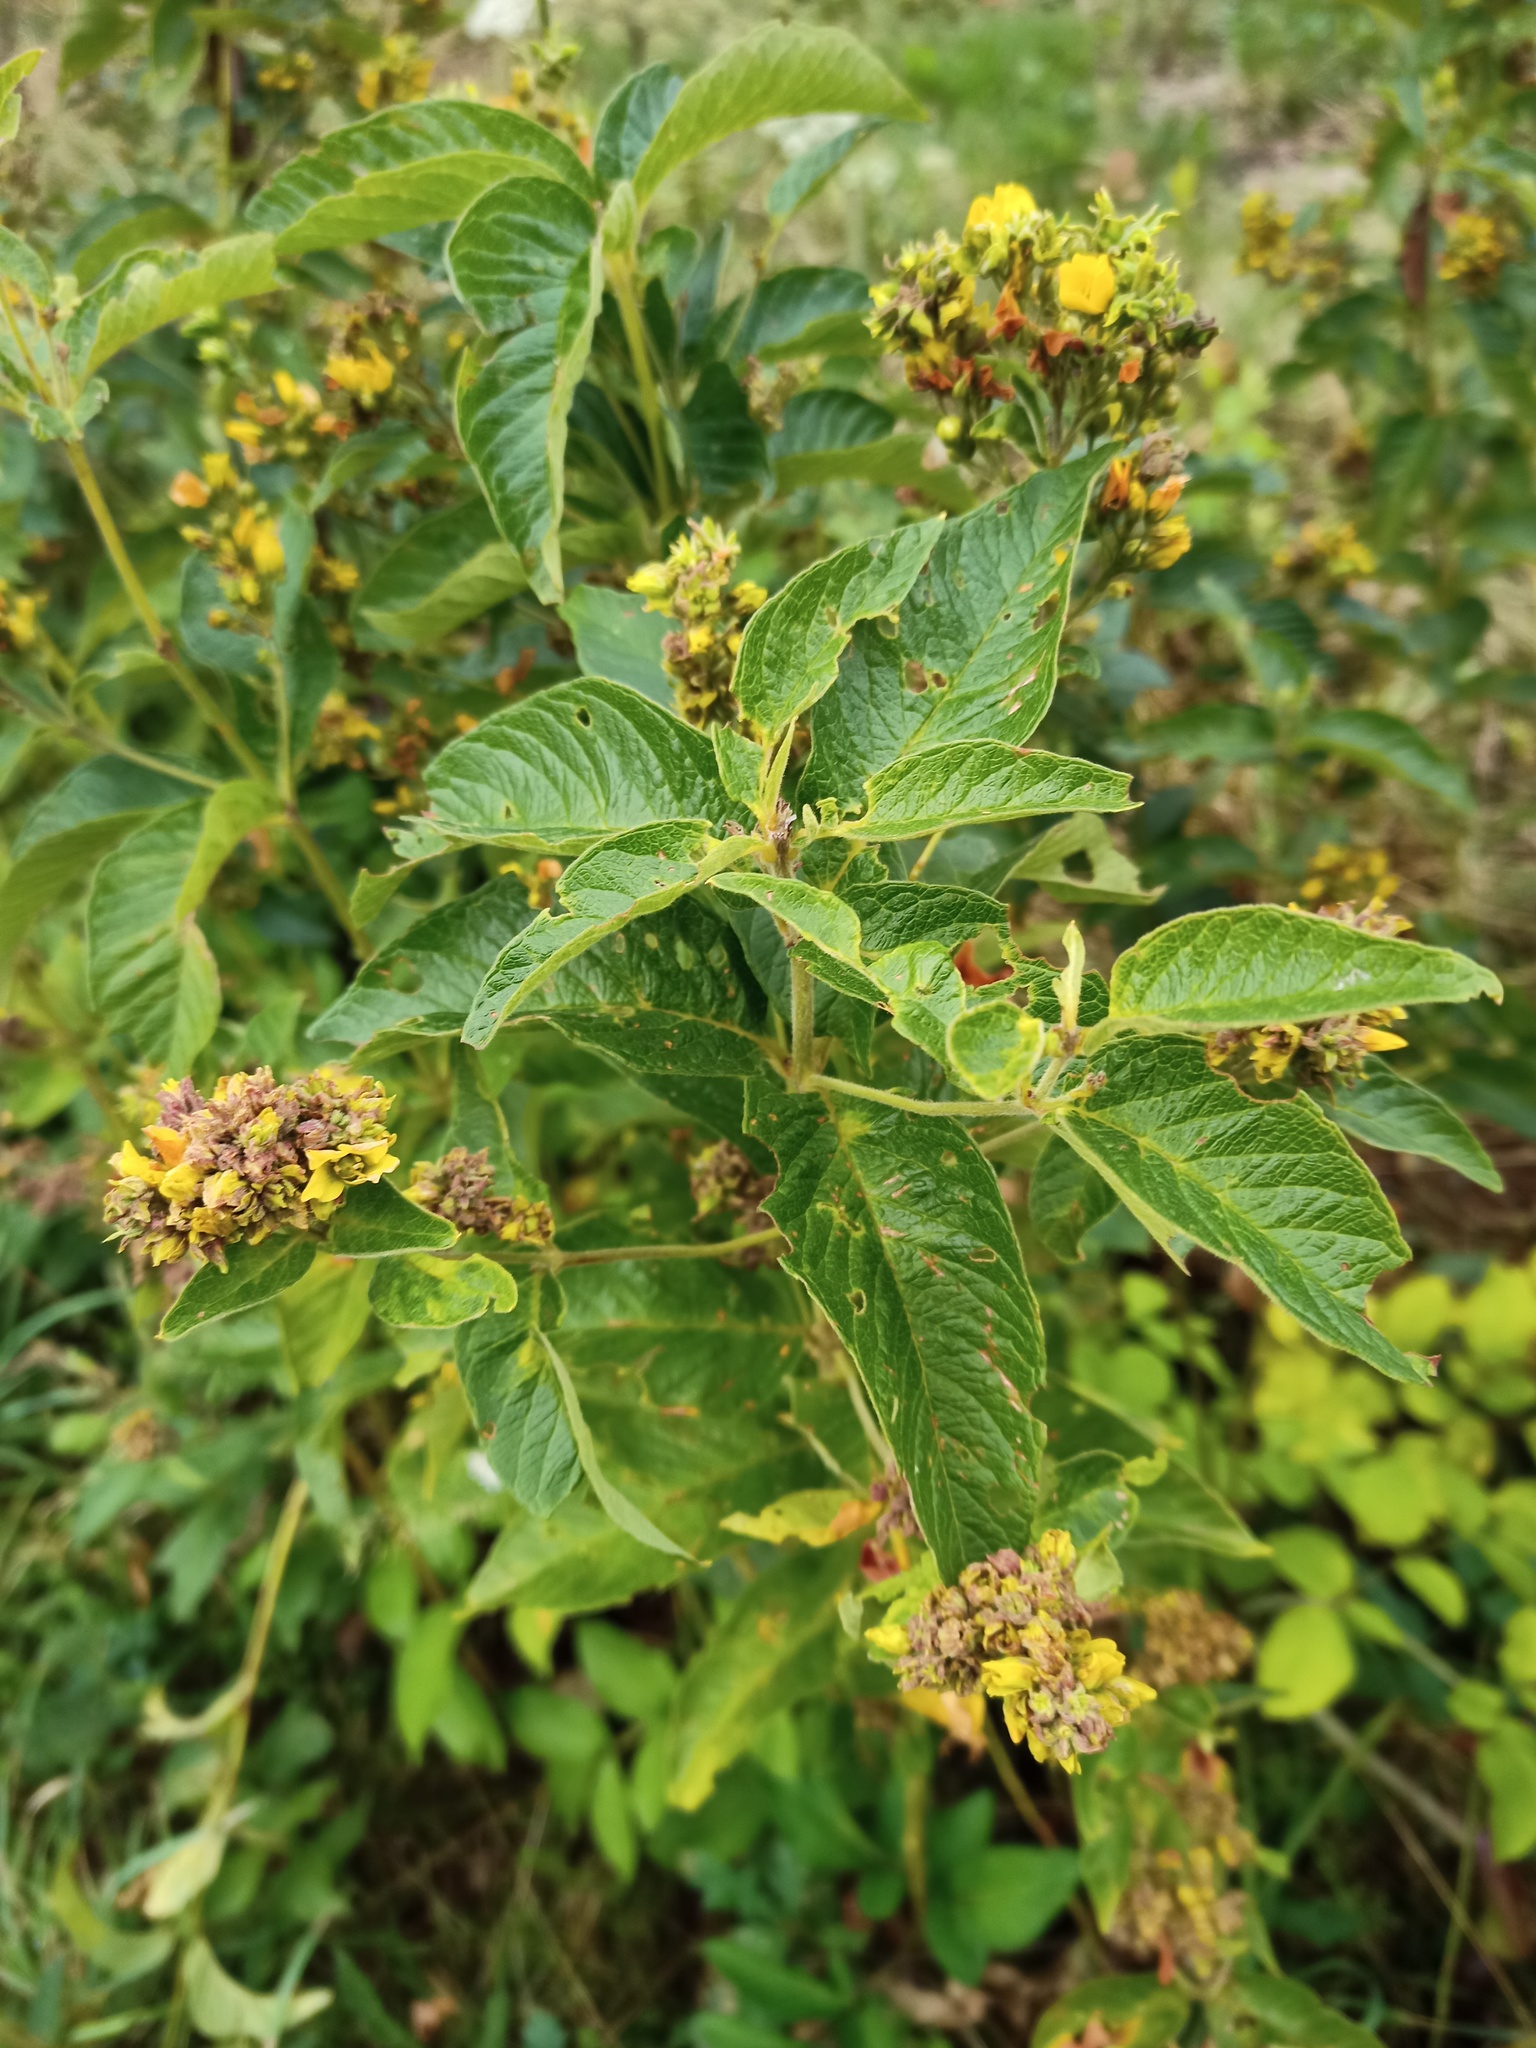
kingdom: Plantae
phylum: Tracheophyta
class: Magnoliopsida
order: Ericales
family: Primulaceae
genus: Lysimachia
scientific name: Lysimachia vulgaris
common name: Yellow loosestrife
